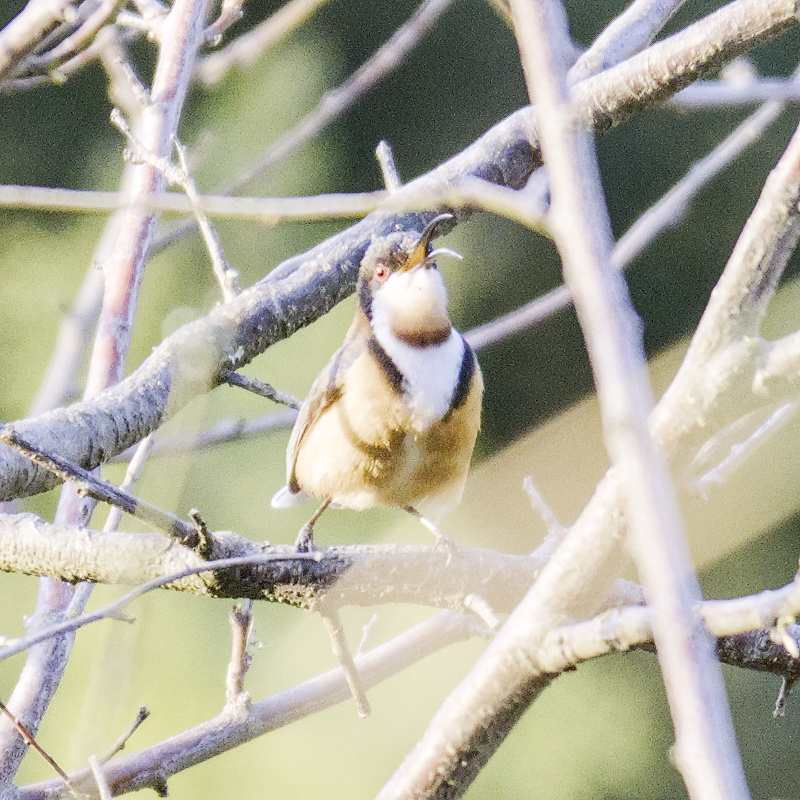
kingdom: Animalia
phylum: Chordata
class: Aves
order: Passeriformes
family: Meliphagidae
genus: Acanthorhynchus
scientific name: Acanthorhynchus tenuirostris
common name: Eastern spinebill
